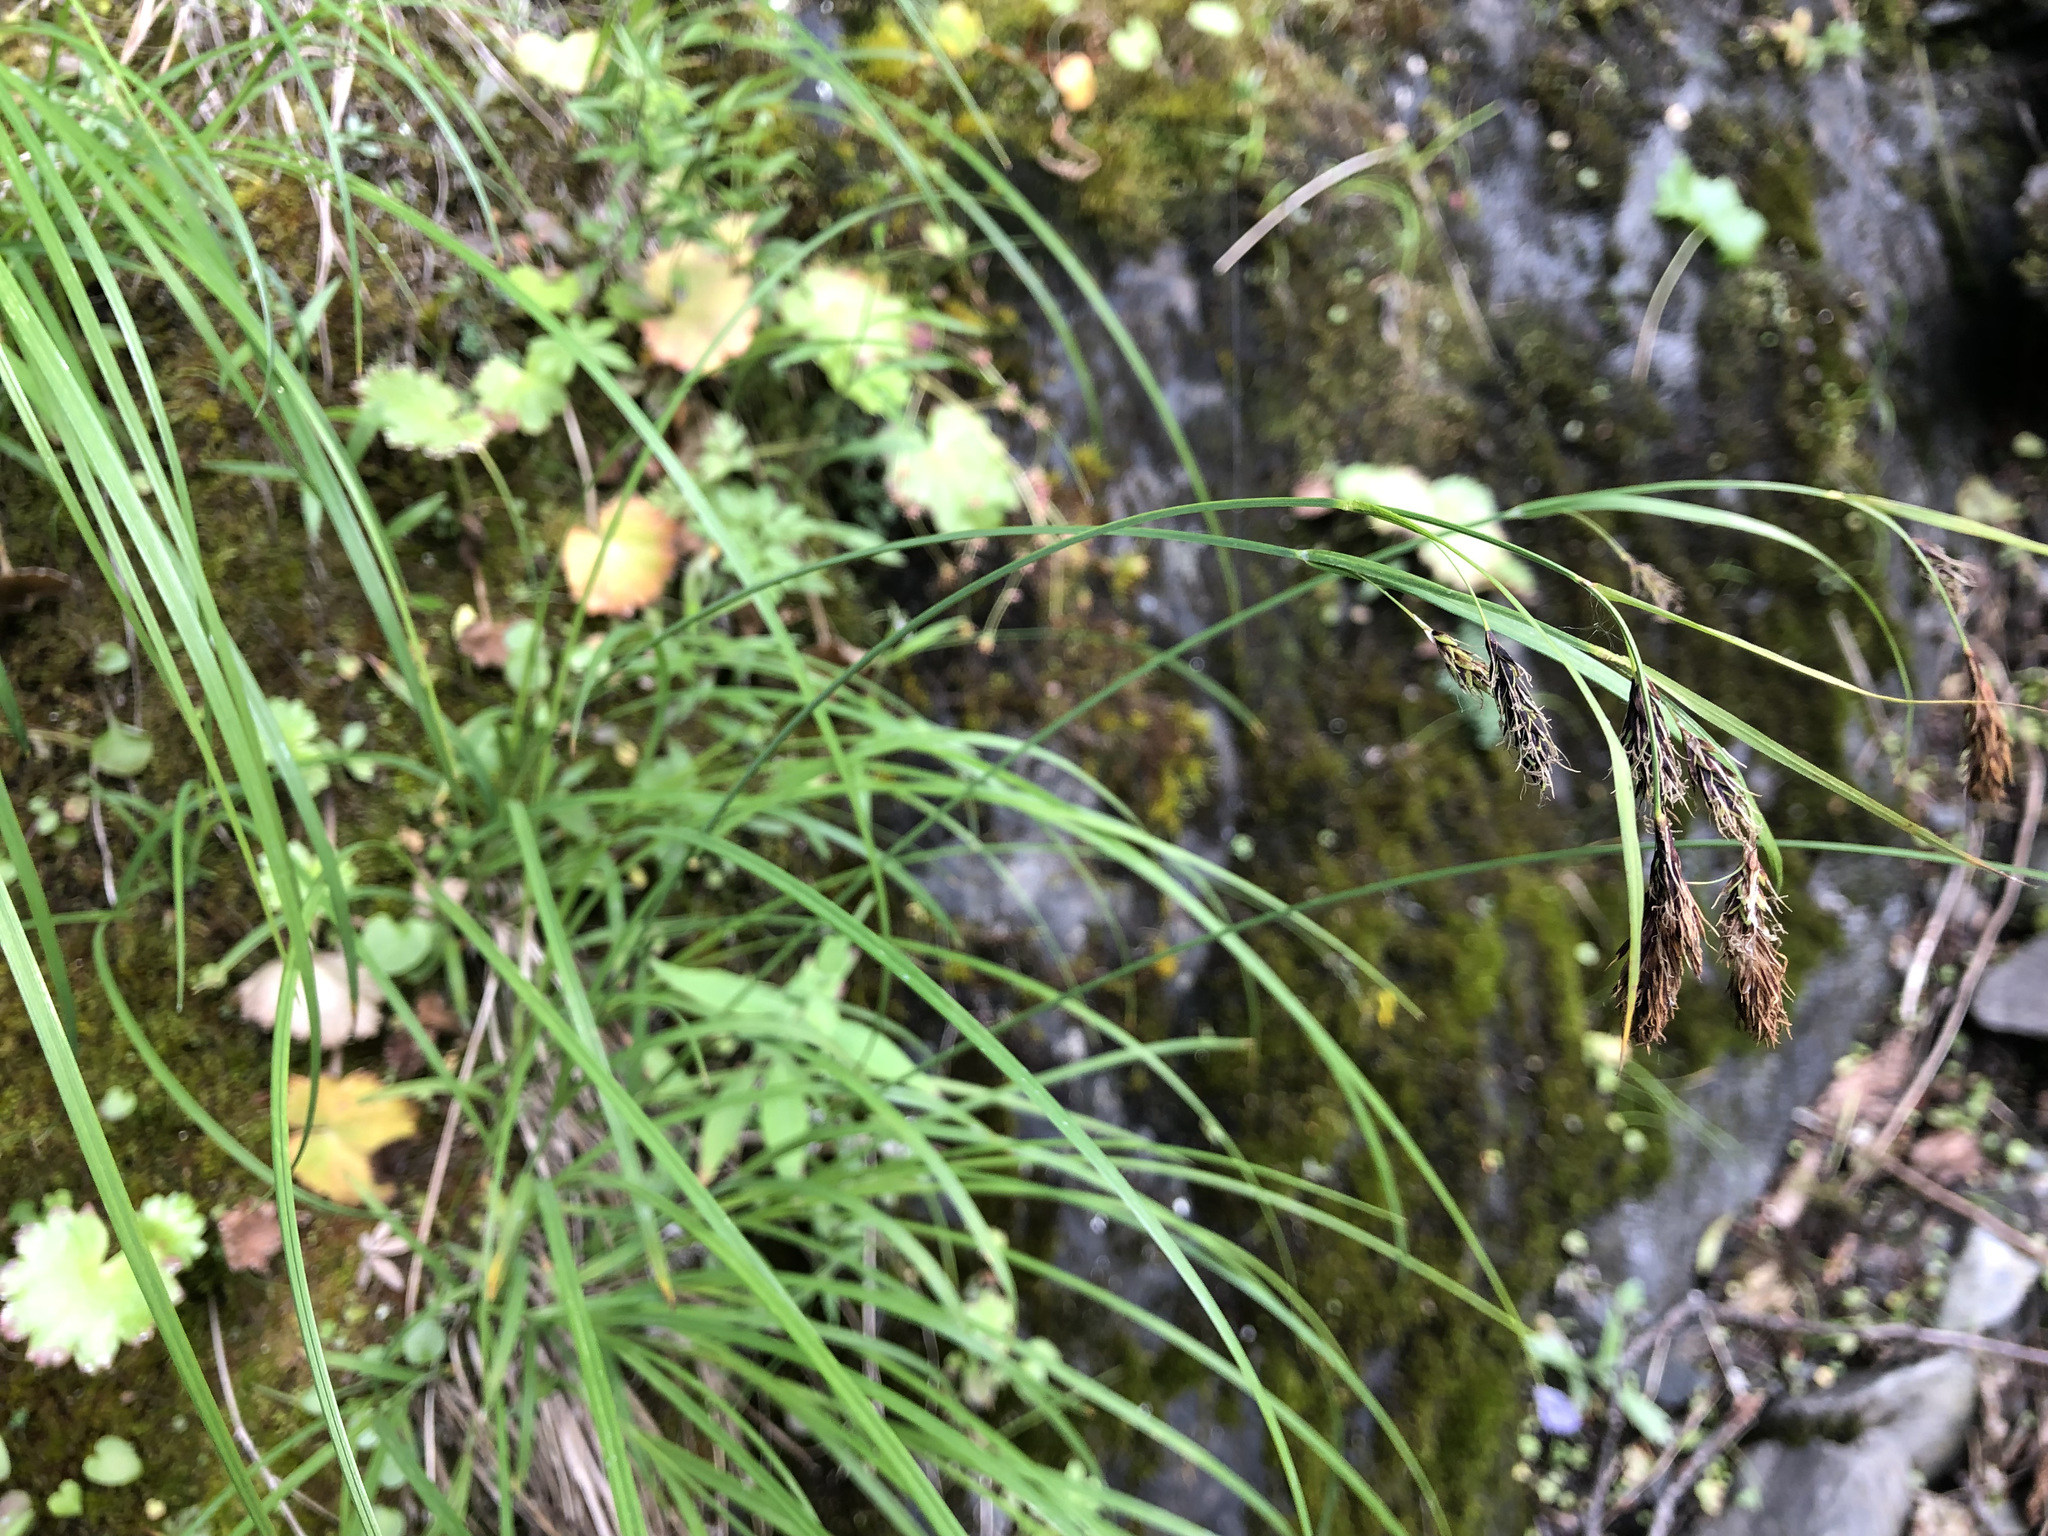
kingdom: Plantae
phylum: Tracheophyta
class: Liliopsida
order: Poales
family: Cyperaceae
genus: Carex
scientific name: Carex macrochaeta
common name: Alaska large awn sedge
